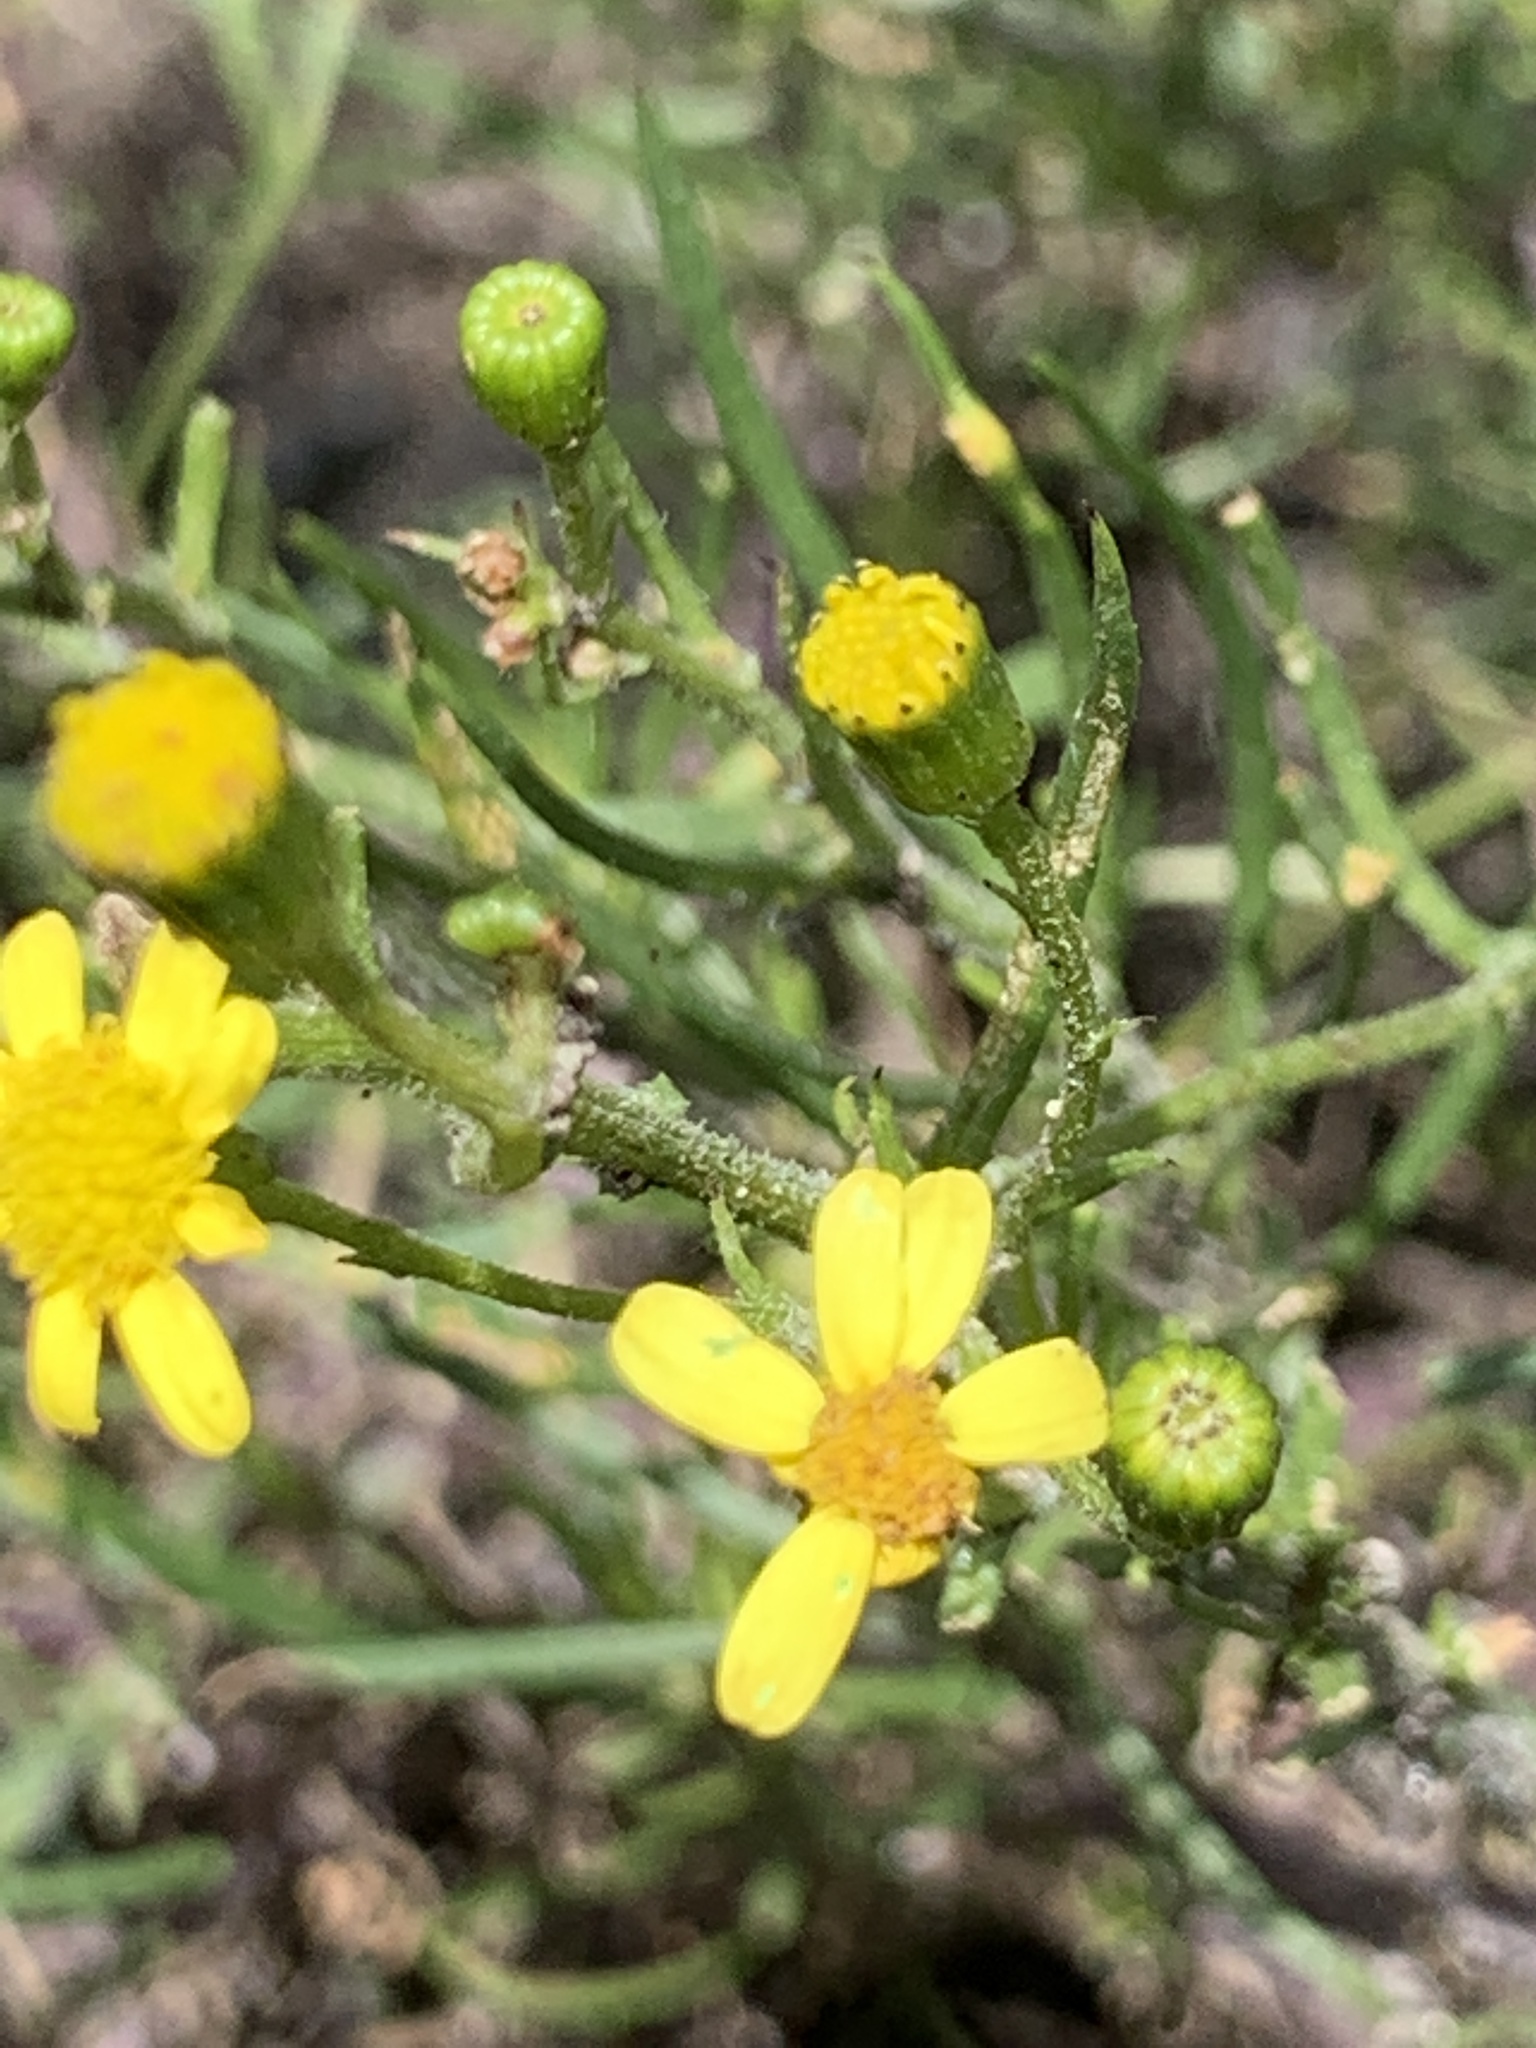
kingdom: Plantae
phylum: Tracheophyta
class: Magnoliopsida
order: Asterales
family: Asteraceae
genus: Senecio
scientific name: Senecio burchellii
